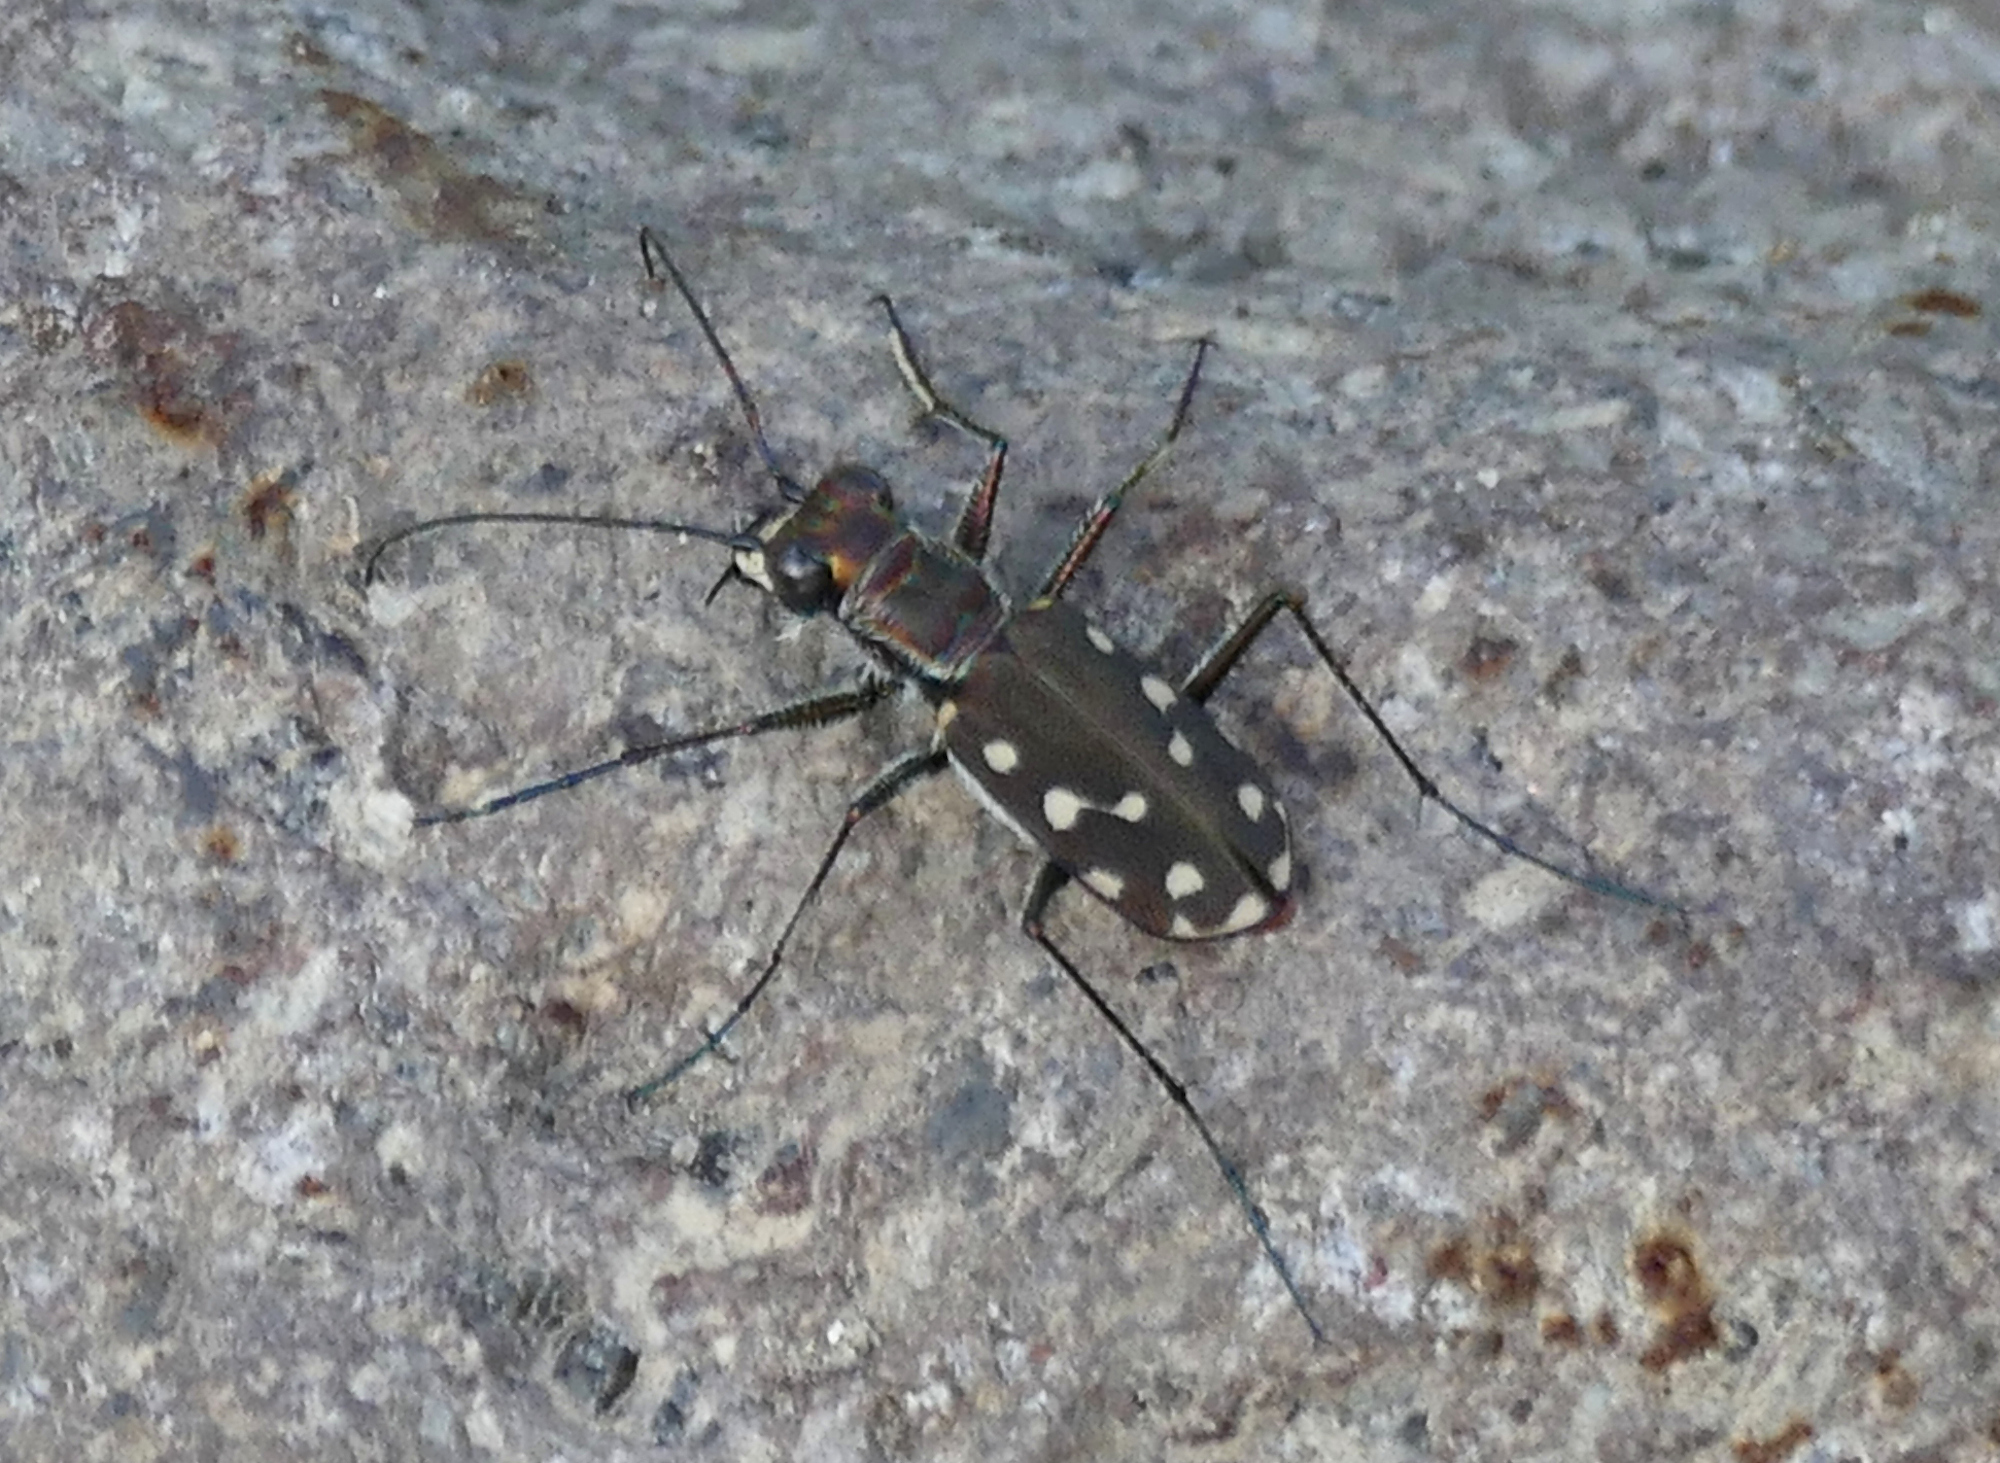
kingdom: Animalia
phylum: Arthropoda
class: Insecta
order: Coleoptera
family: Carabidae
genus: Cicindela
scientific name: Cicindela sedecimpunctata
